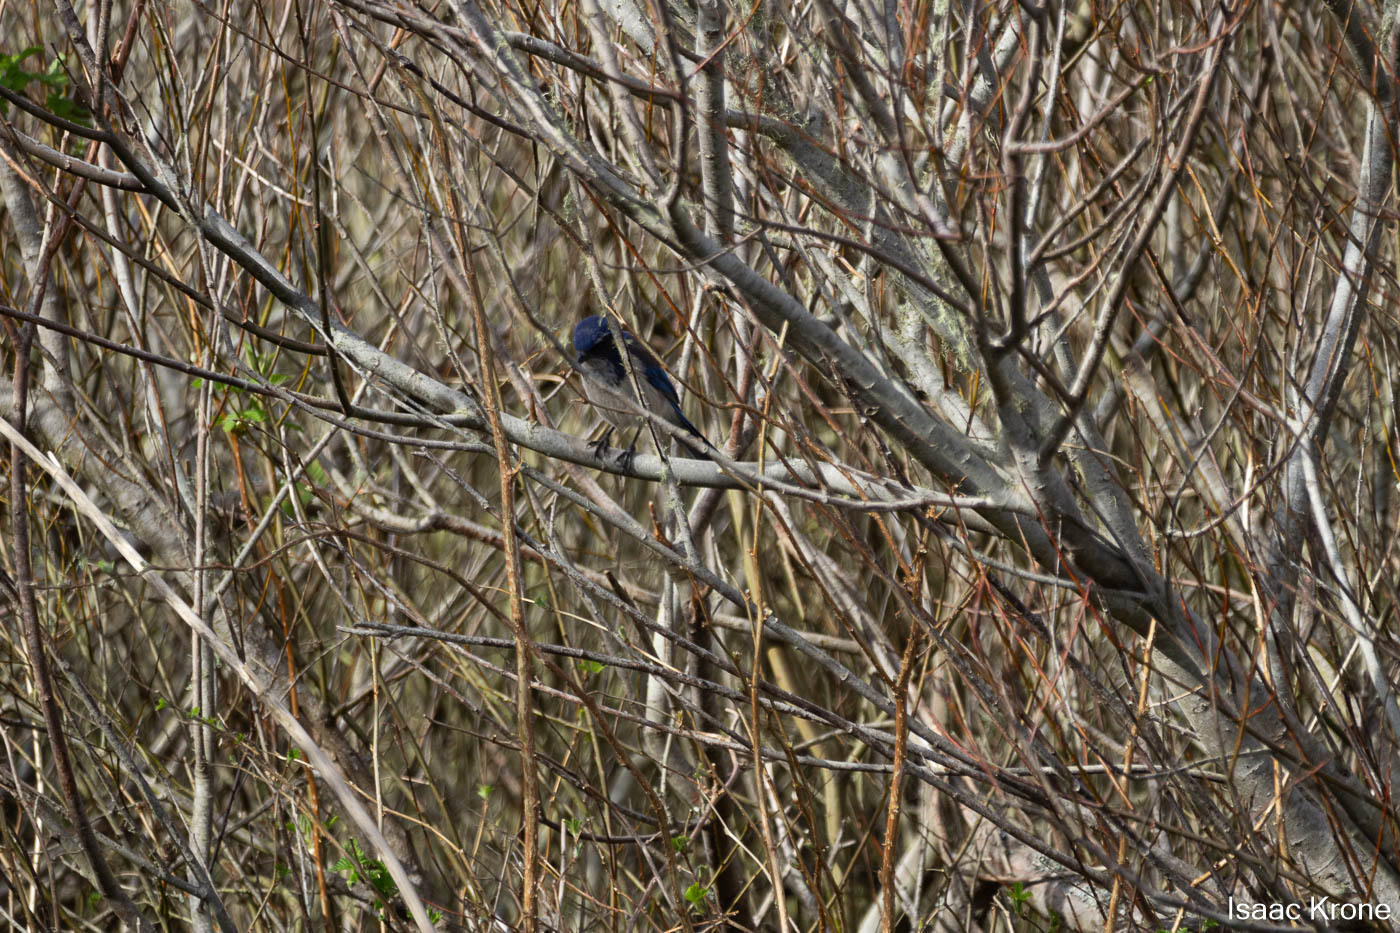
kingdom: Animalia
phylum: Chordata
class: Aves
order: Passeriformes
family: Corvidae
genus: Aphelocoma
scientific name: Aphelocoma californica
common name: California scrub-jay
